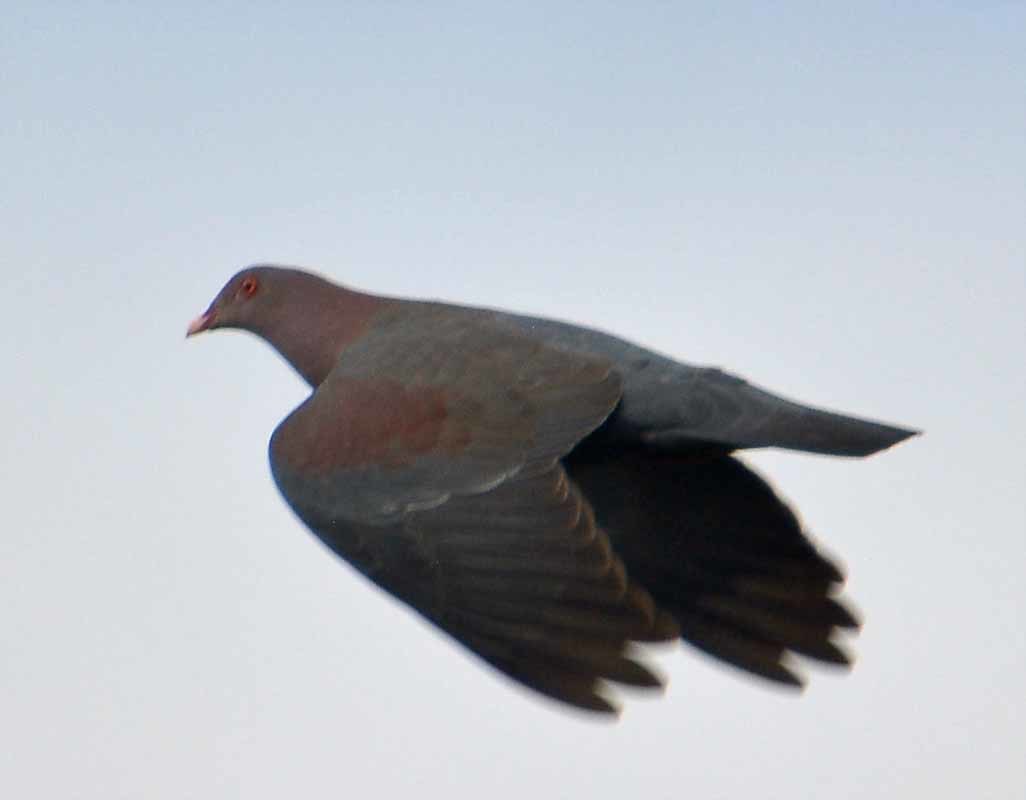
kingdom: Animalia
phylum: Chordata
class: Aves
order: Columbiformes
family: Columbidae
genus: Patagioenas
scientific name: Patagioenas flavirostris
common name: Red-billed pigeon
